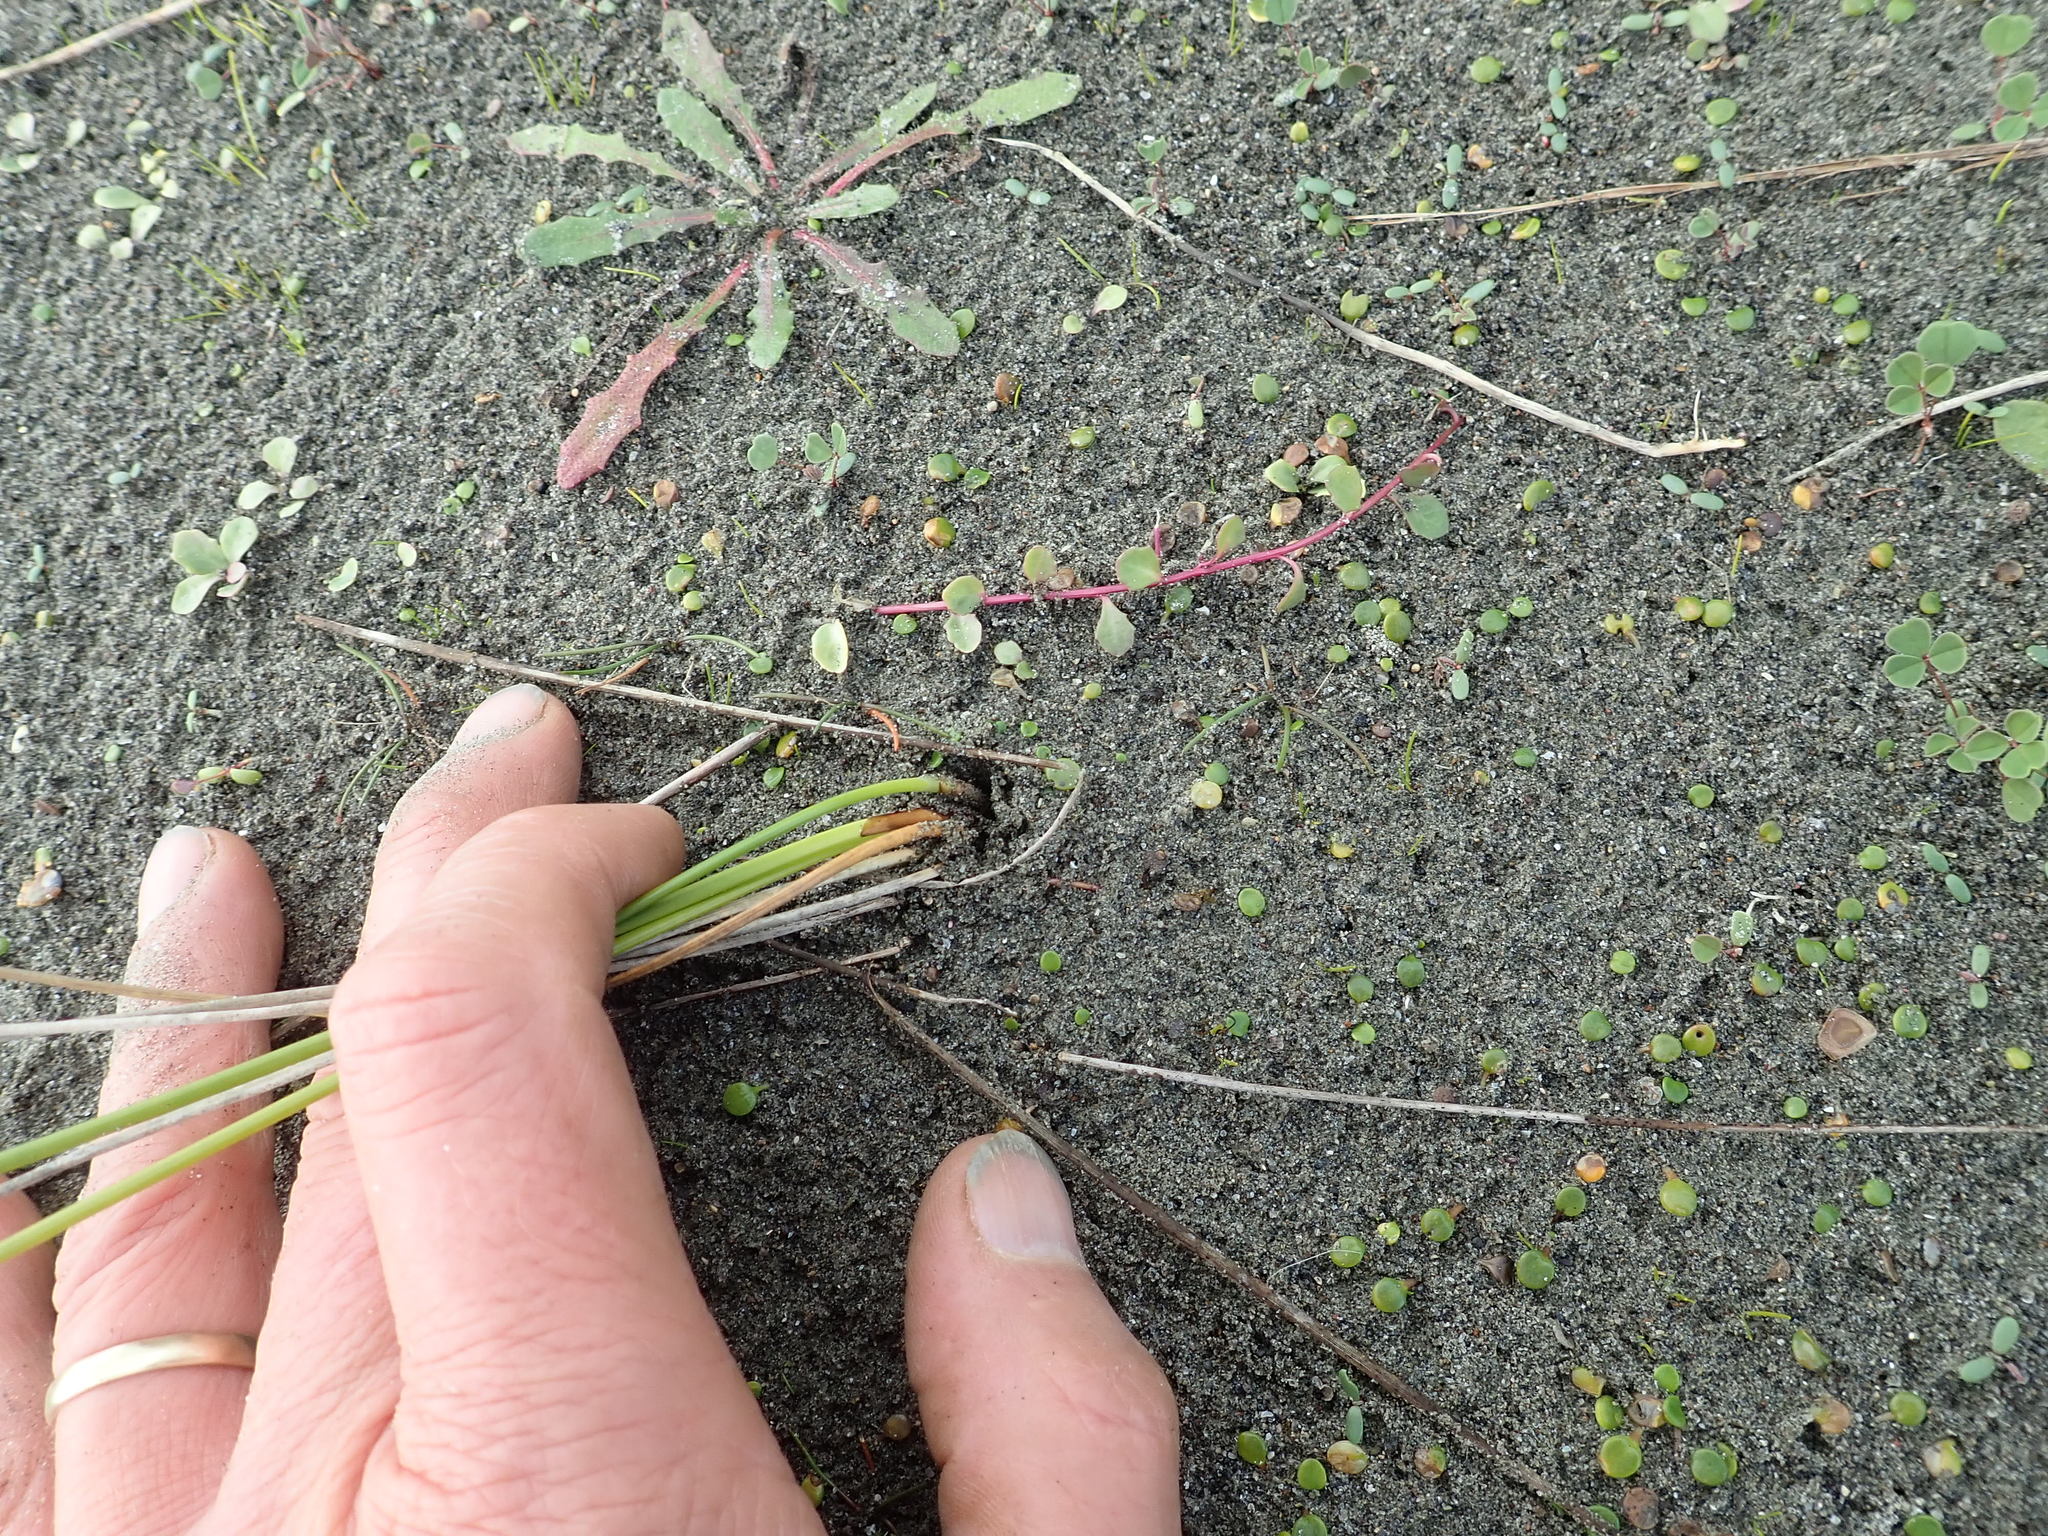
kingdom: Plantae
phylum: Tracheophyta
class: Magnoliopsida
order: Asterales
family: Campanulaceae
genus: Lobelia
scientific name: Lobelia anceps
